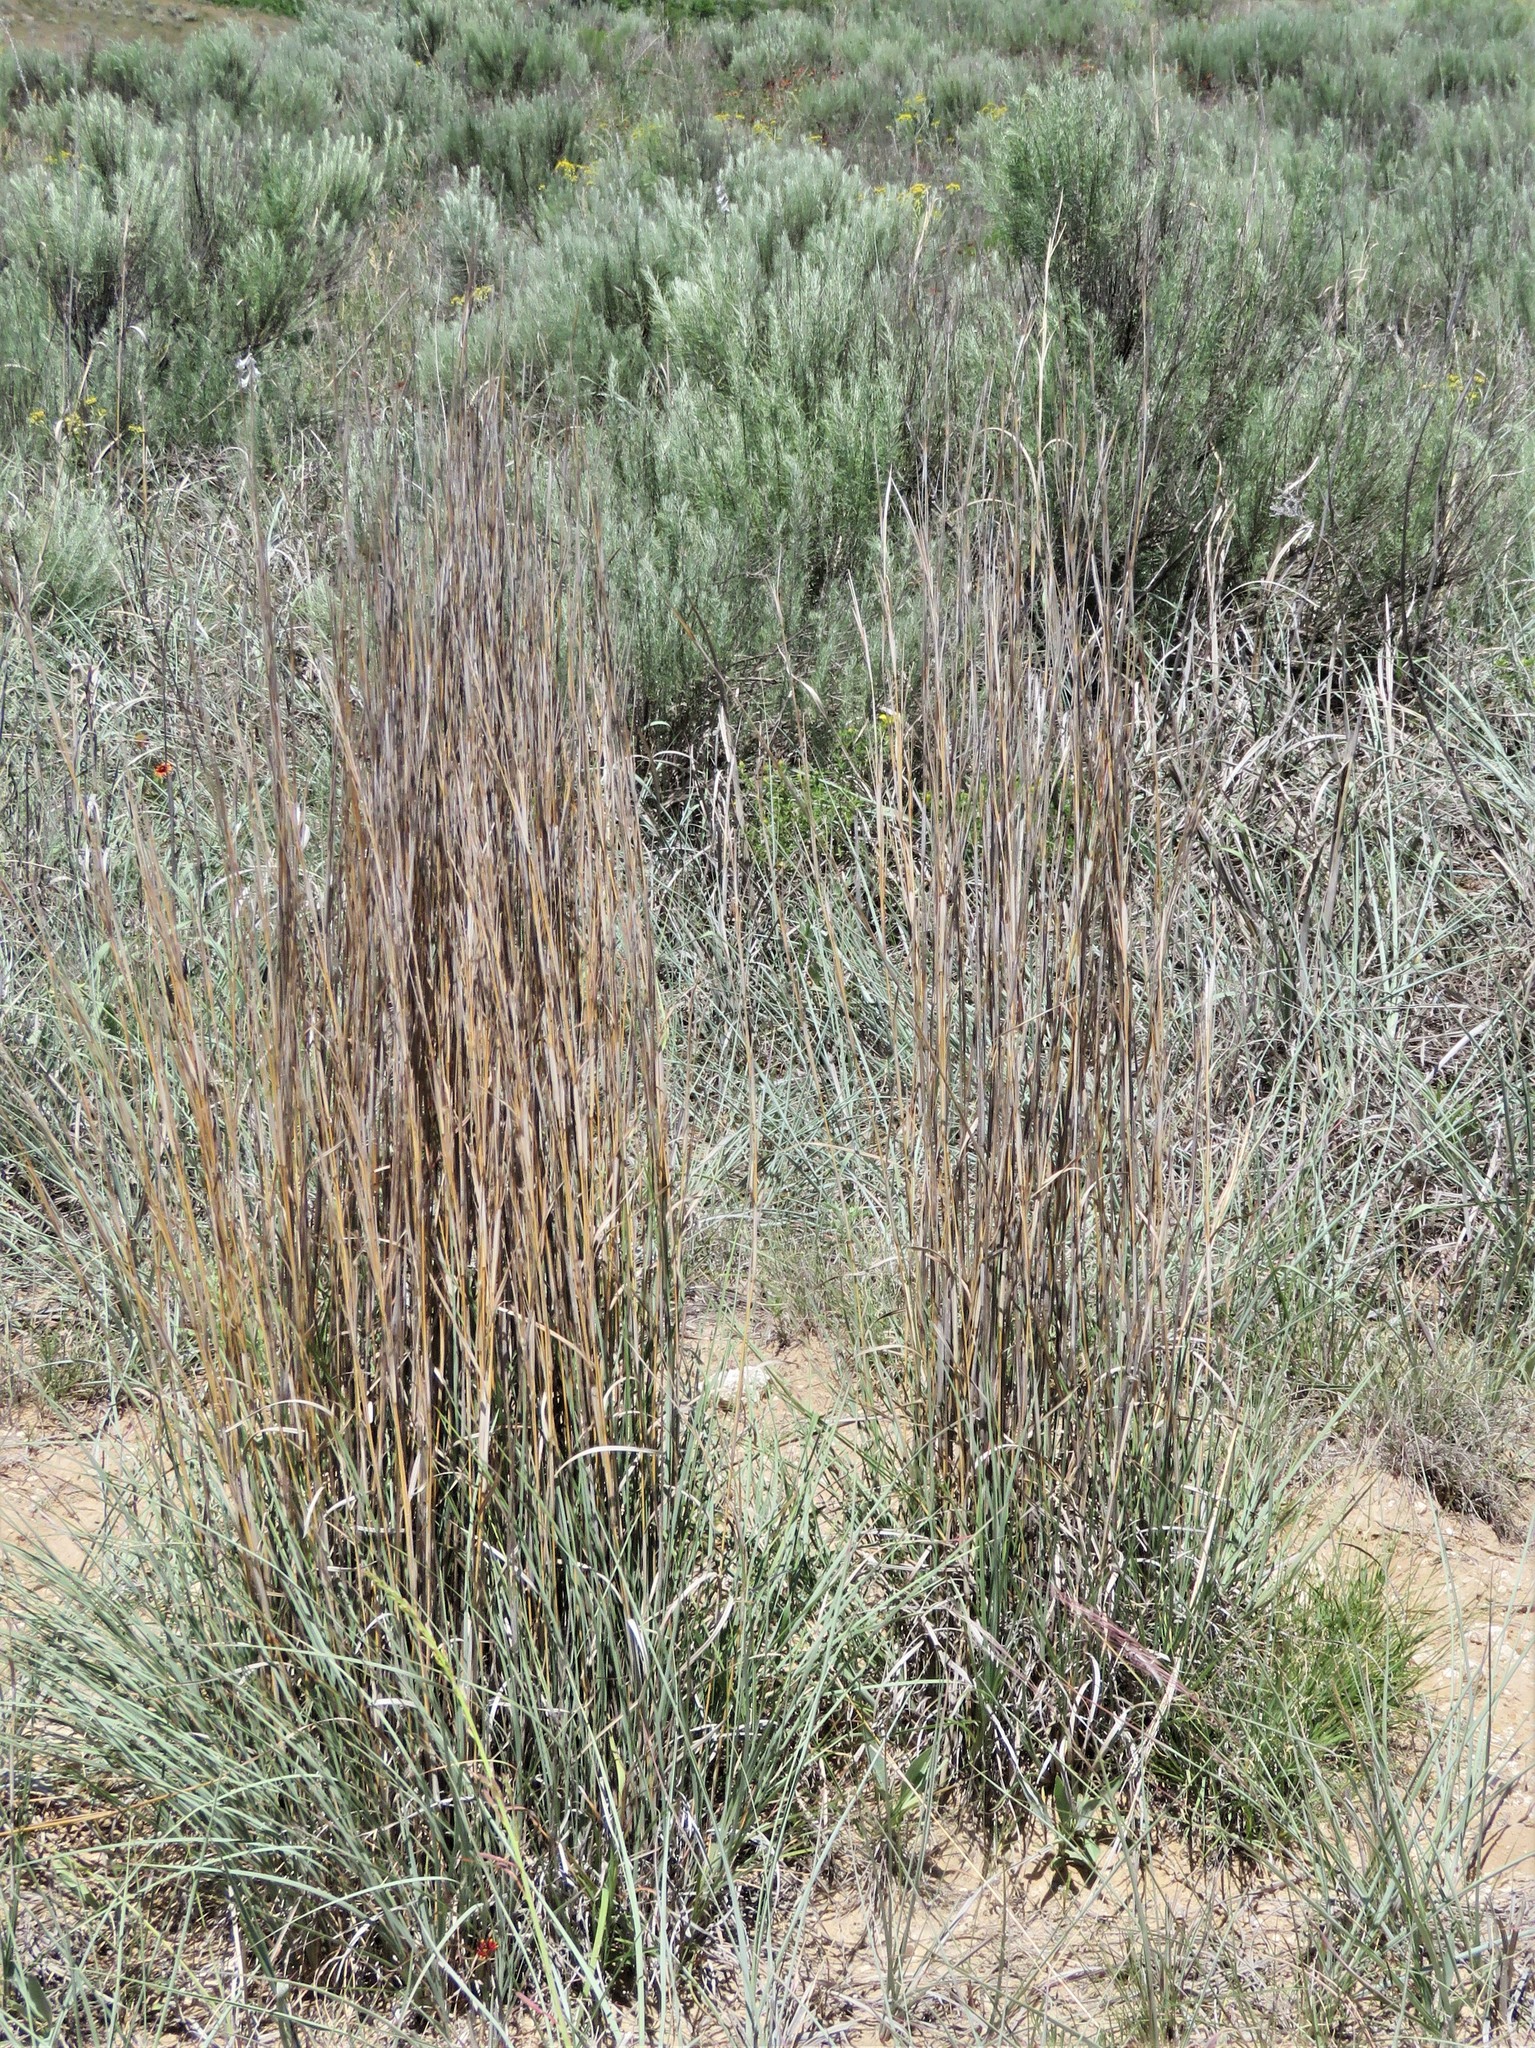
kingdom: Plantae
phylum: Tracheophyta
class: Liliopsida
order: Poales
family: Poaceae
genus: Schizachyrium
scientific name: Schizachyrium scoparium
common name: Little bluestem
